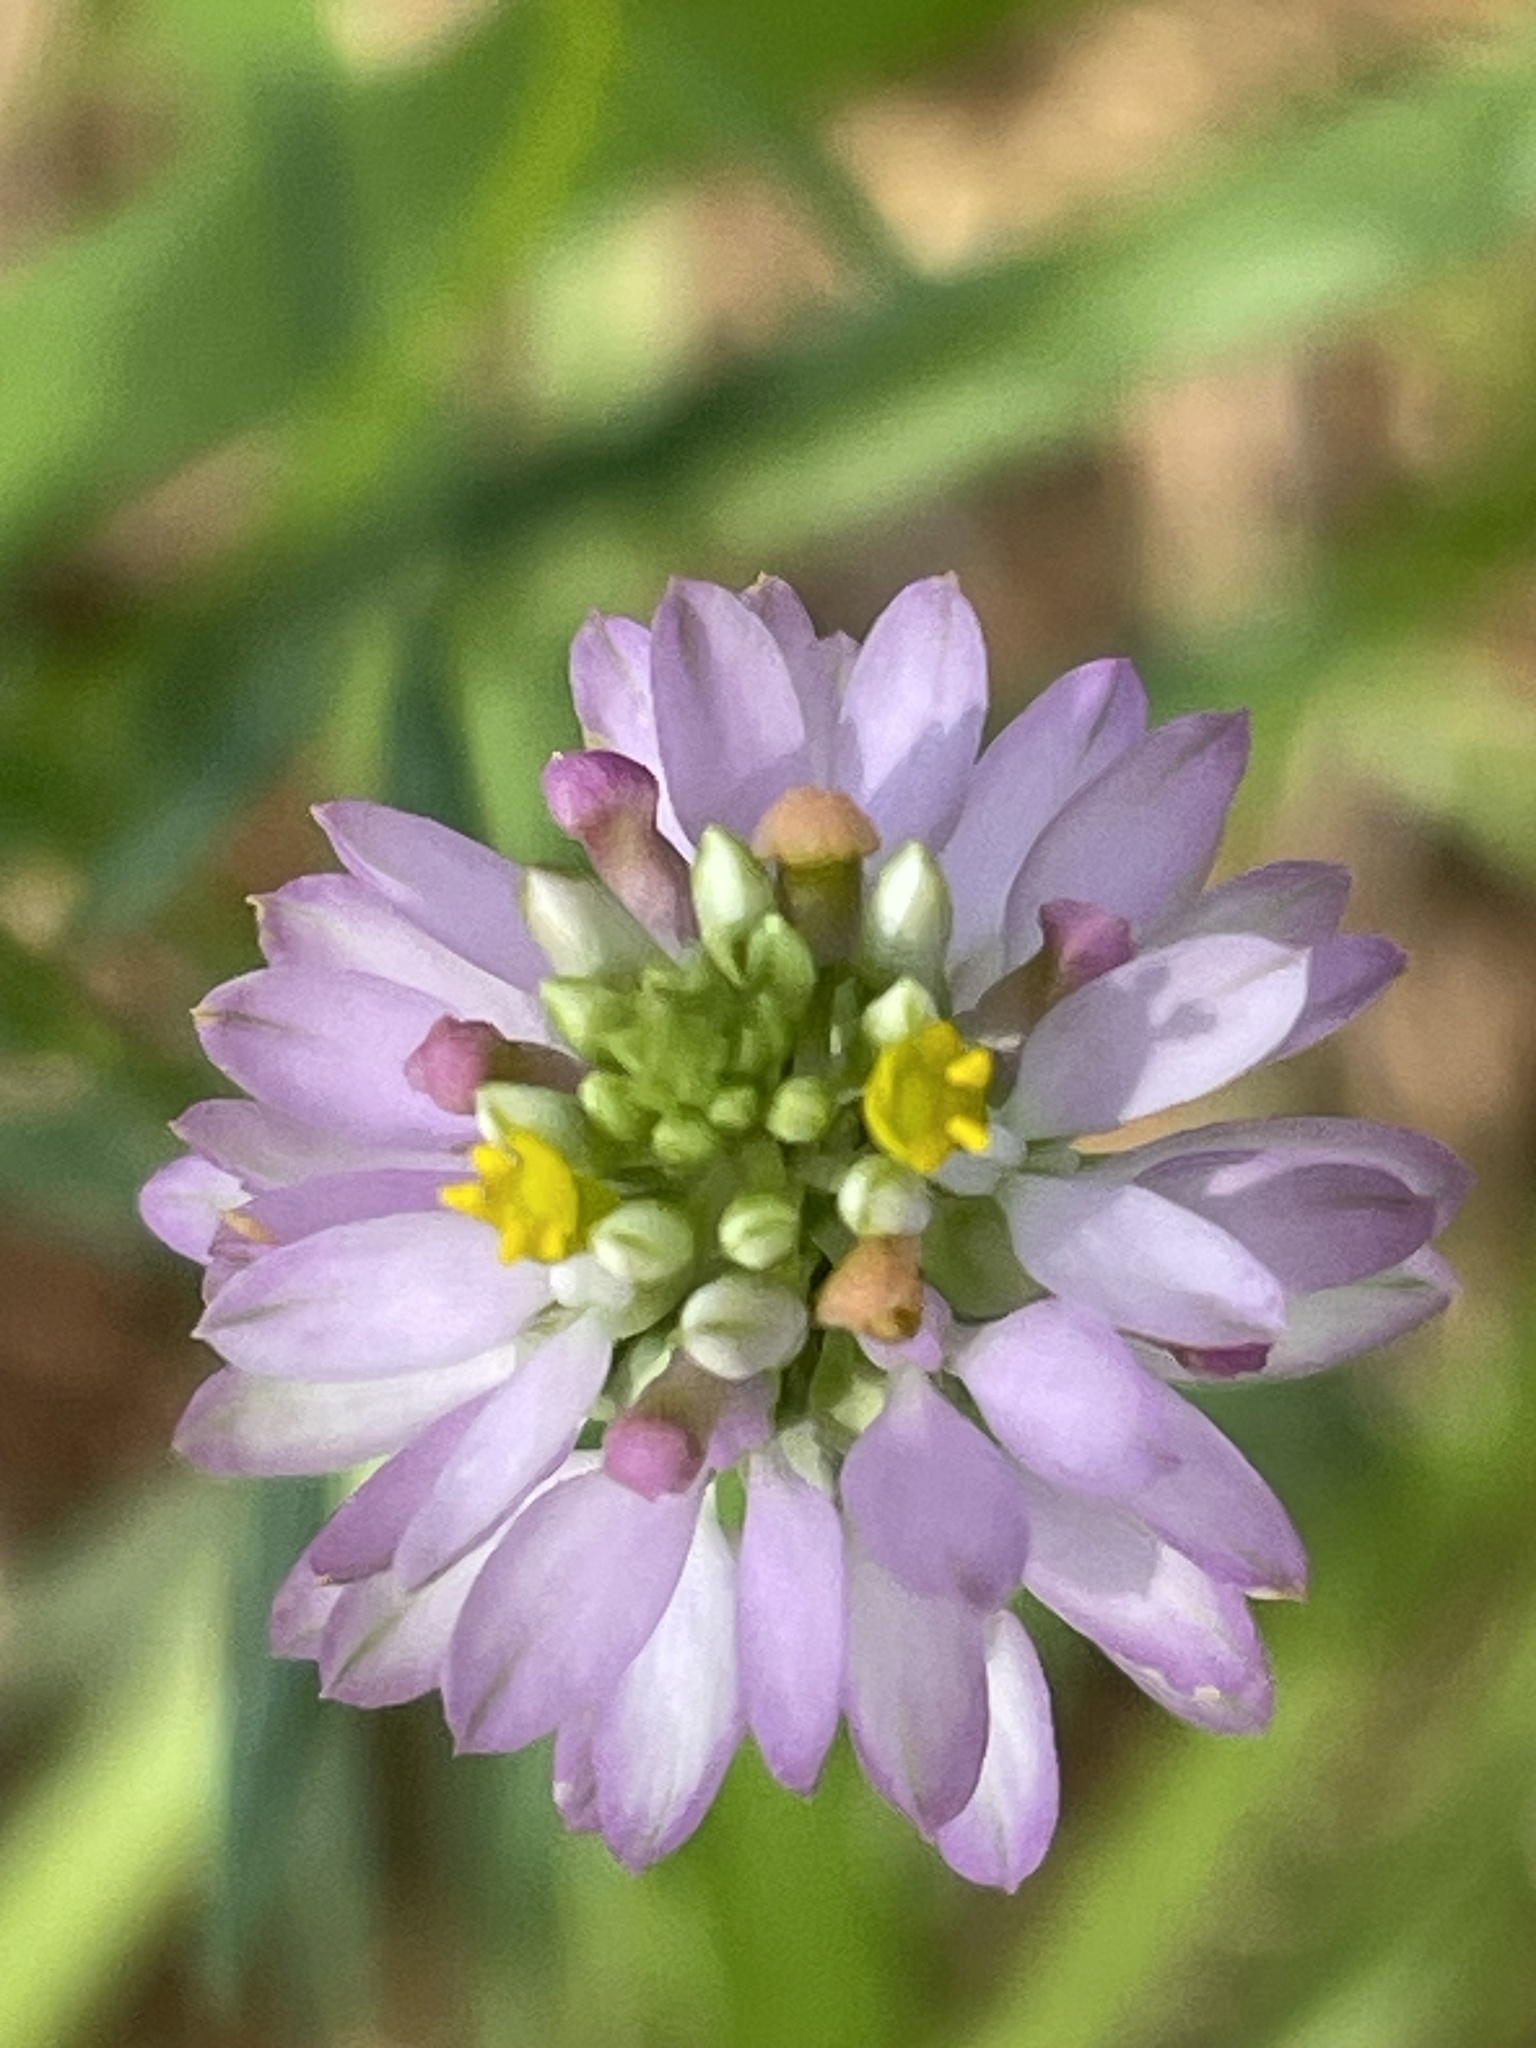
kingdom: Plantae
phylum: Tracheophyta
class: Magnoliopsida
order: Fabales
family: Polygalaceae
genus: Polygala
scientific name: Polygala curtissii
